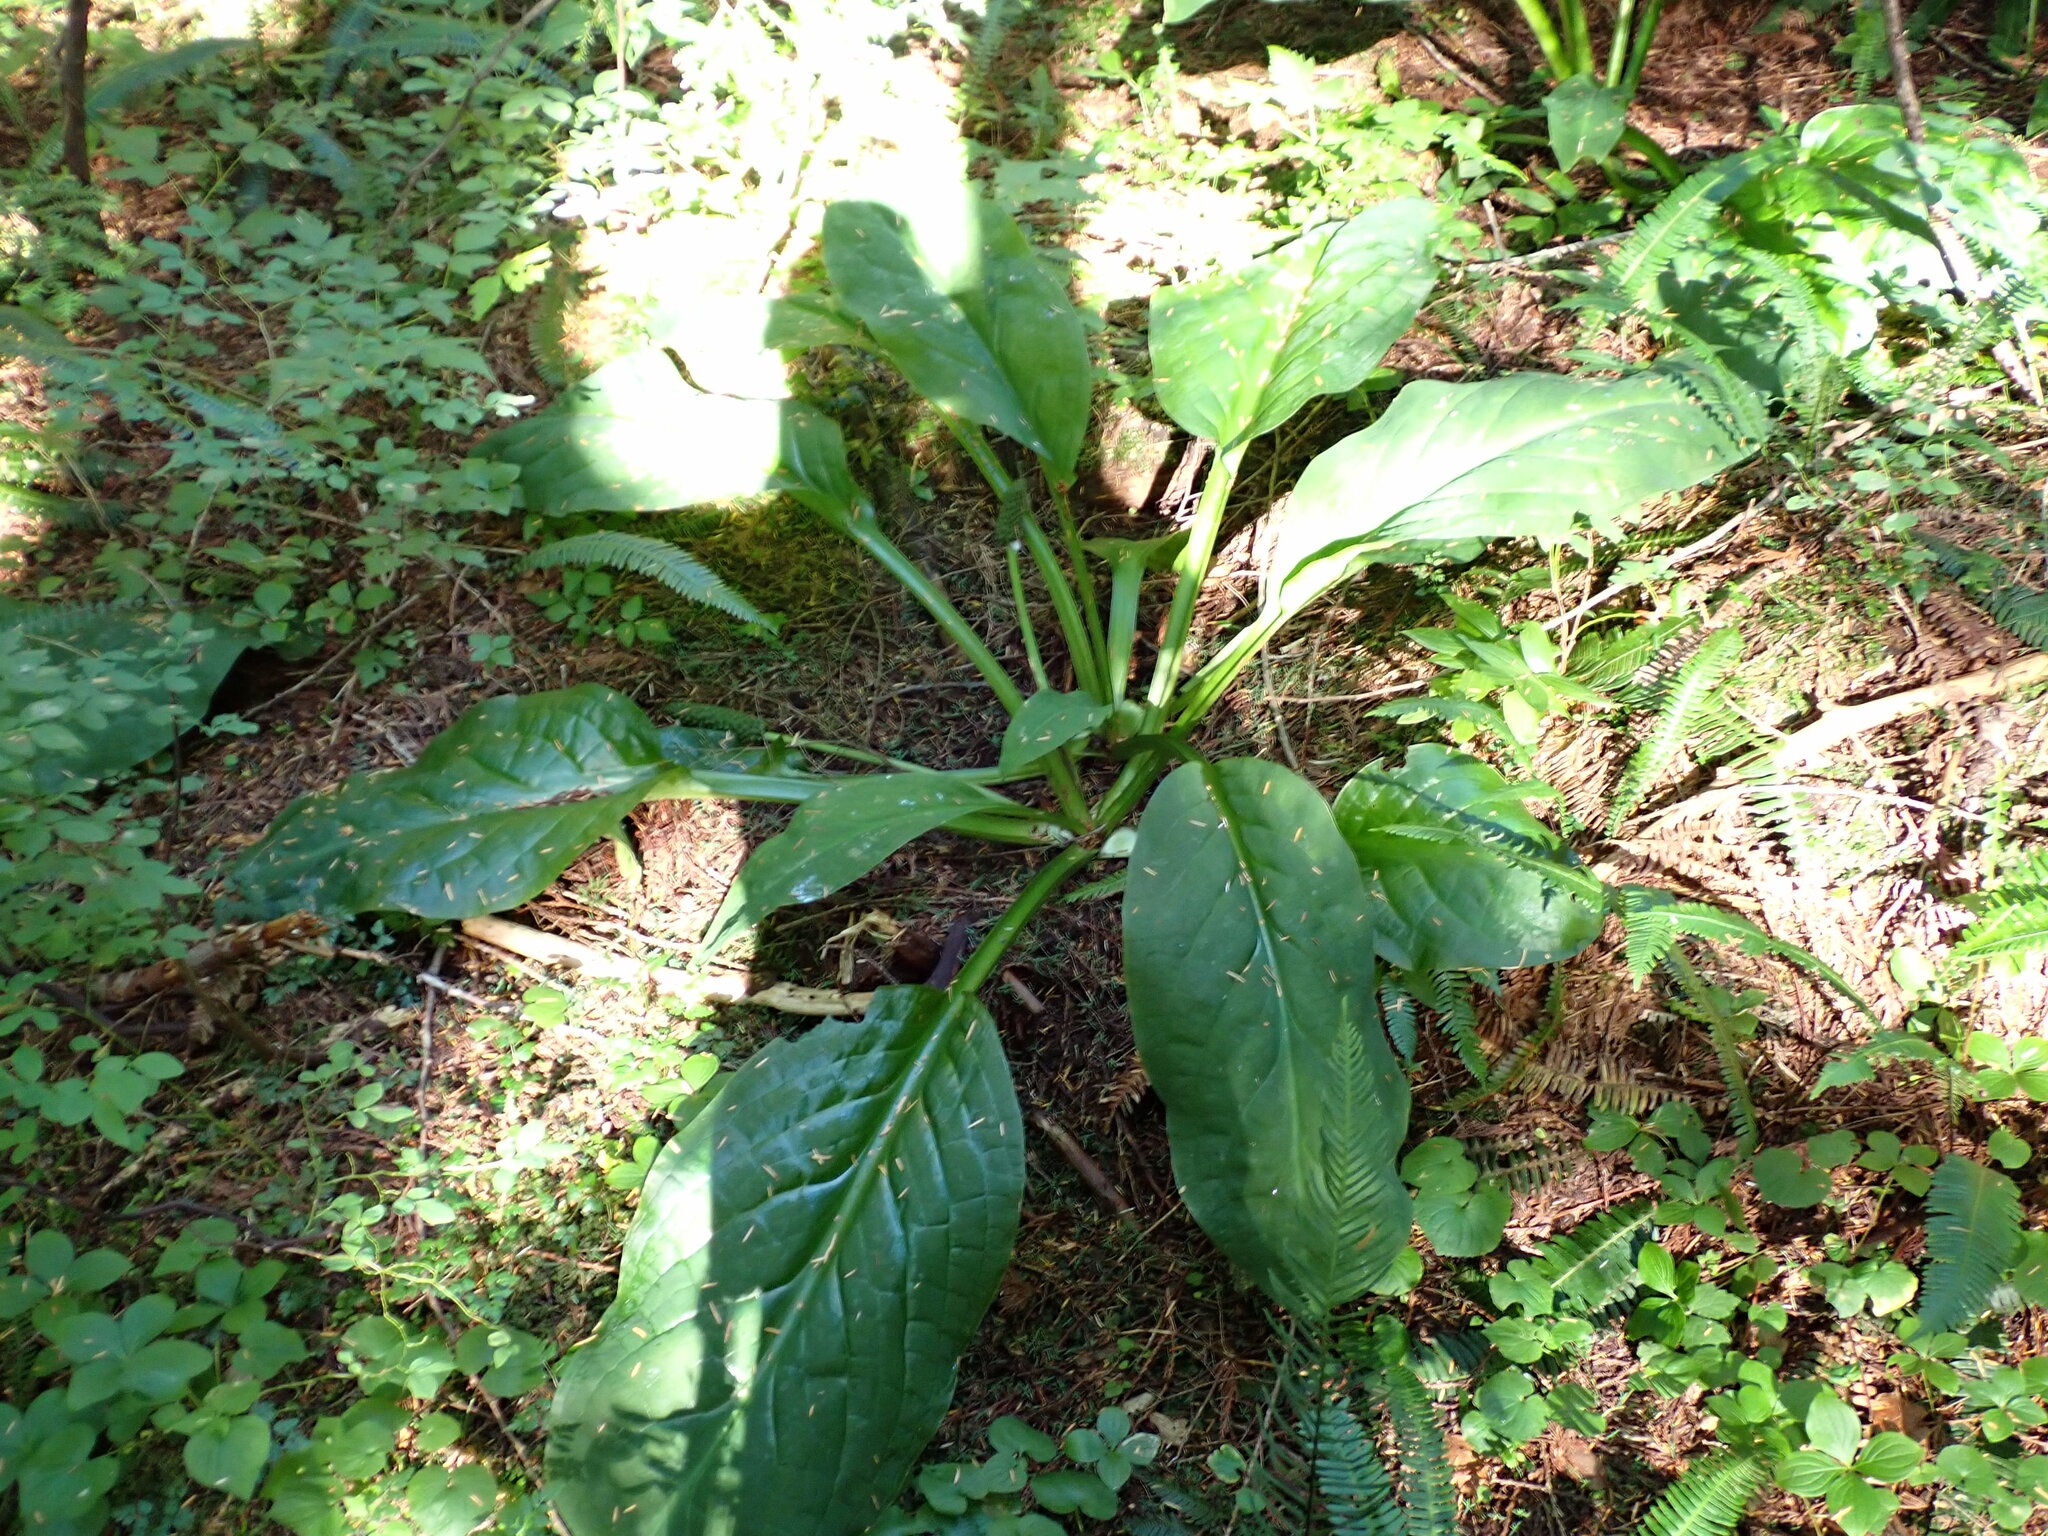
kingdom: Plantae
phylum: Tracheophyta
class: Liliopsida
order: Alismatales
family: Araceae
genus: Lysichiton
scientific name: Lysichiton americanus
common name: American skunk cabbage
